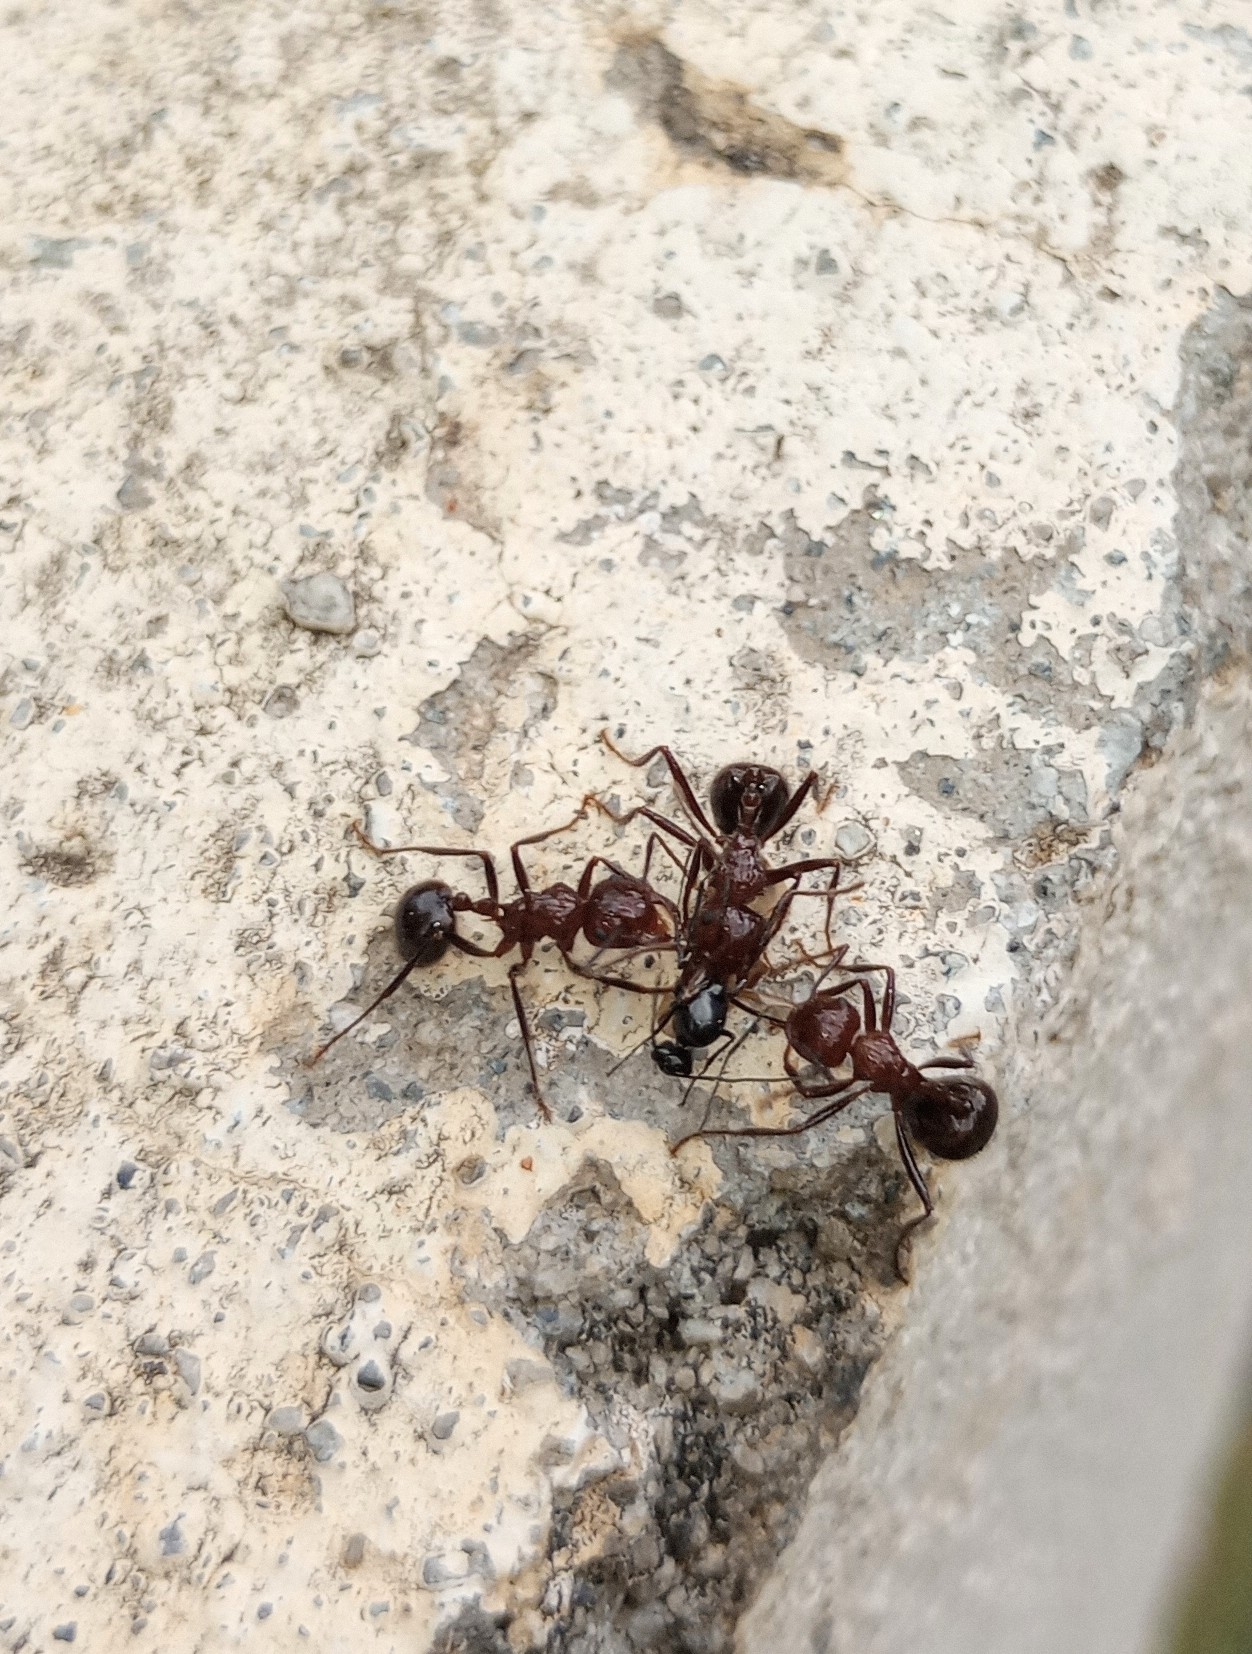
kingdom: Animalia
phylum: Arthropoda
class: Insecta
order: Hymenoptera
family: Formicidae
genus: Myrmicaria
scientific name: Myrmicaria brunnea
